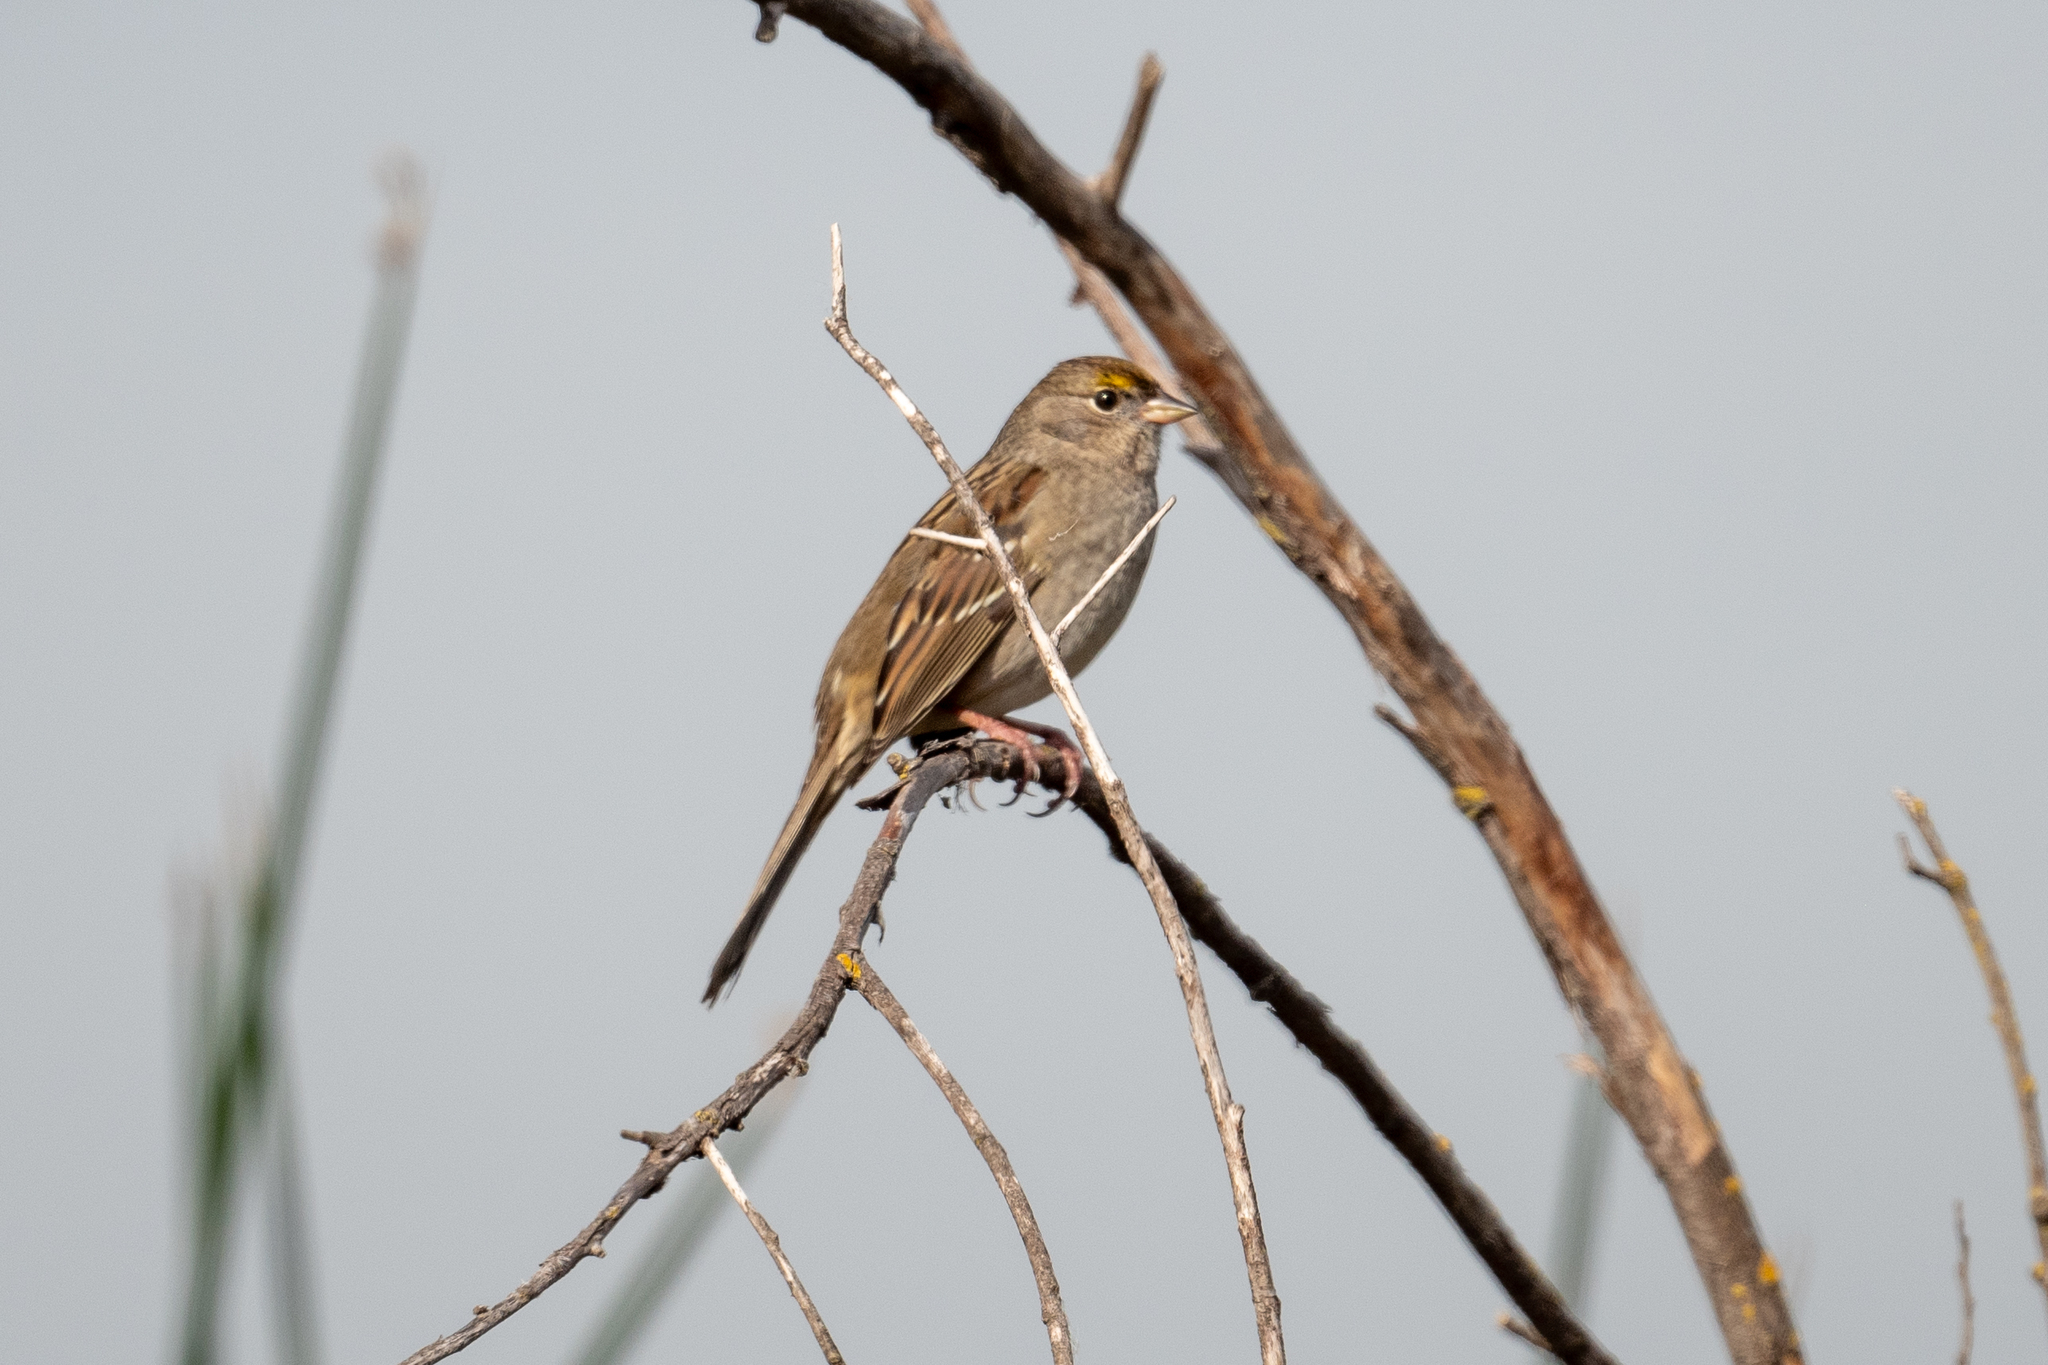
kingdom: Animalia
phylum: Chordata
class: Aves
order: Passeriformes
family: Passerellidae
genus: Zonotrichia
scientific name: Zonotrichia atricapilla
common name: Golden-crowned sparrow
